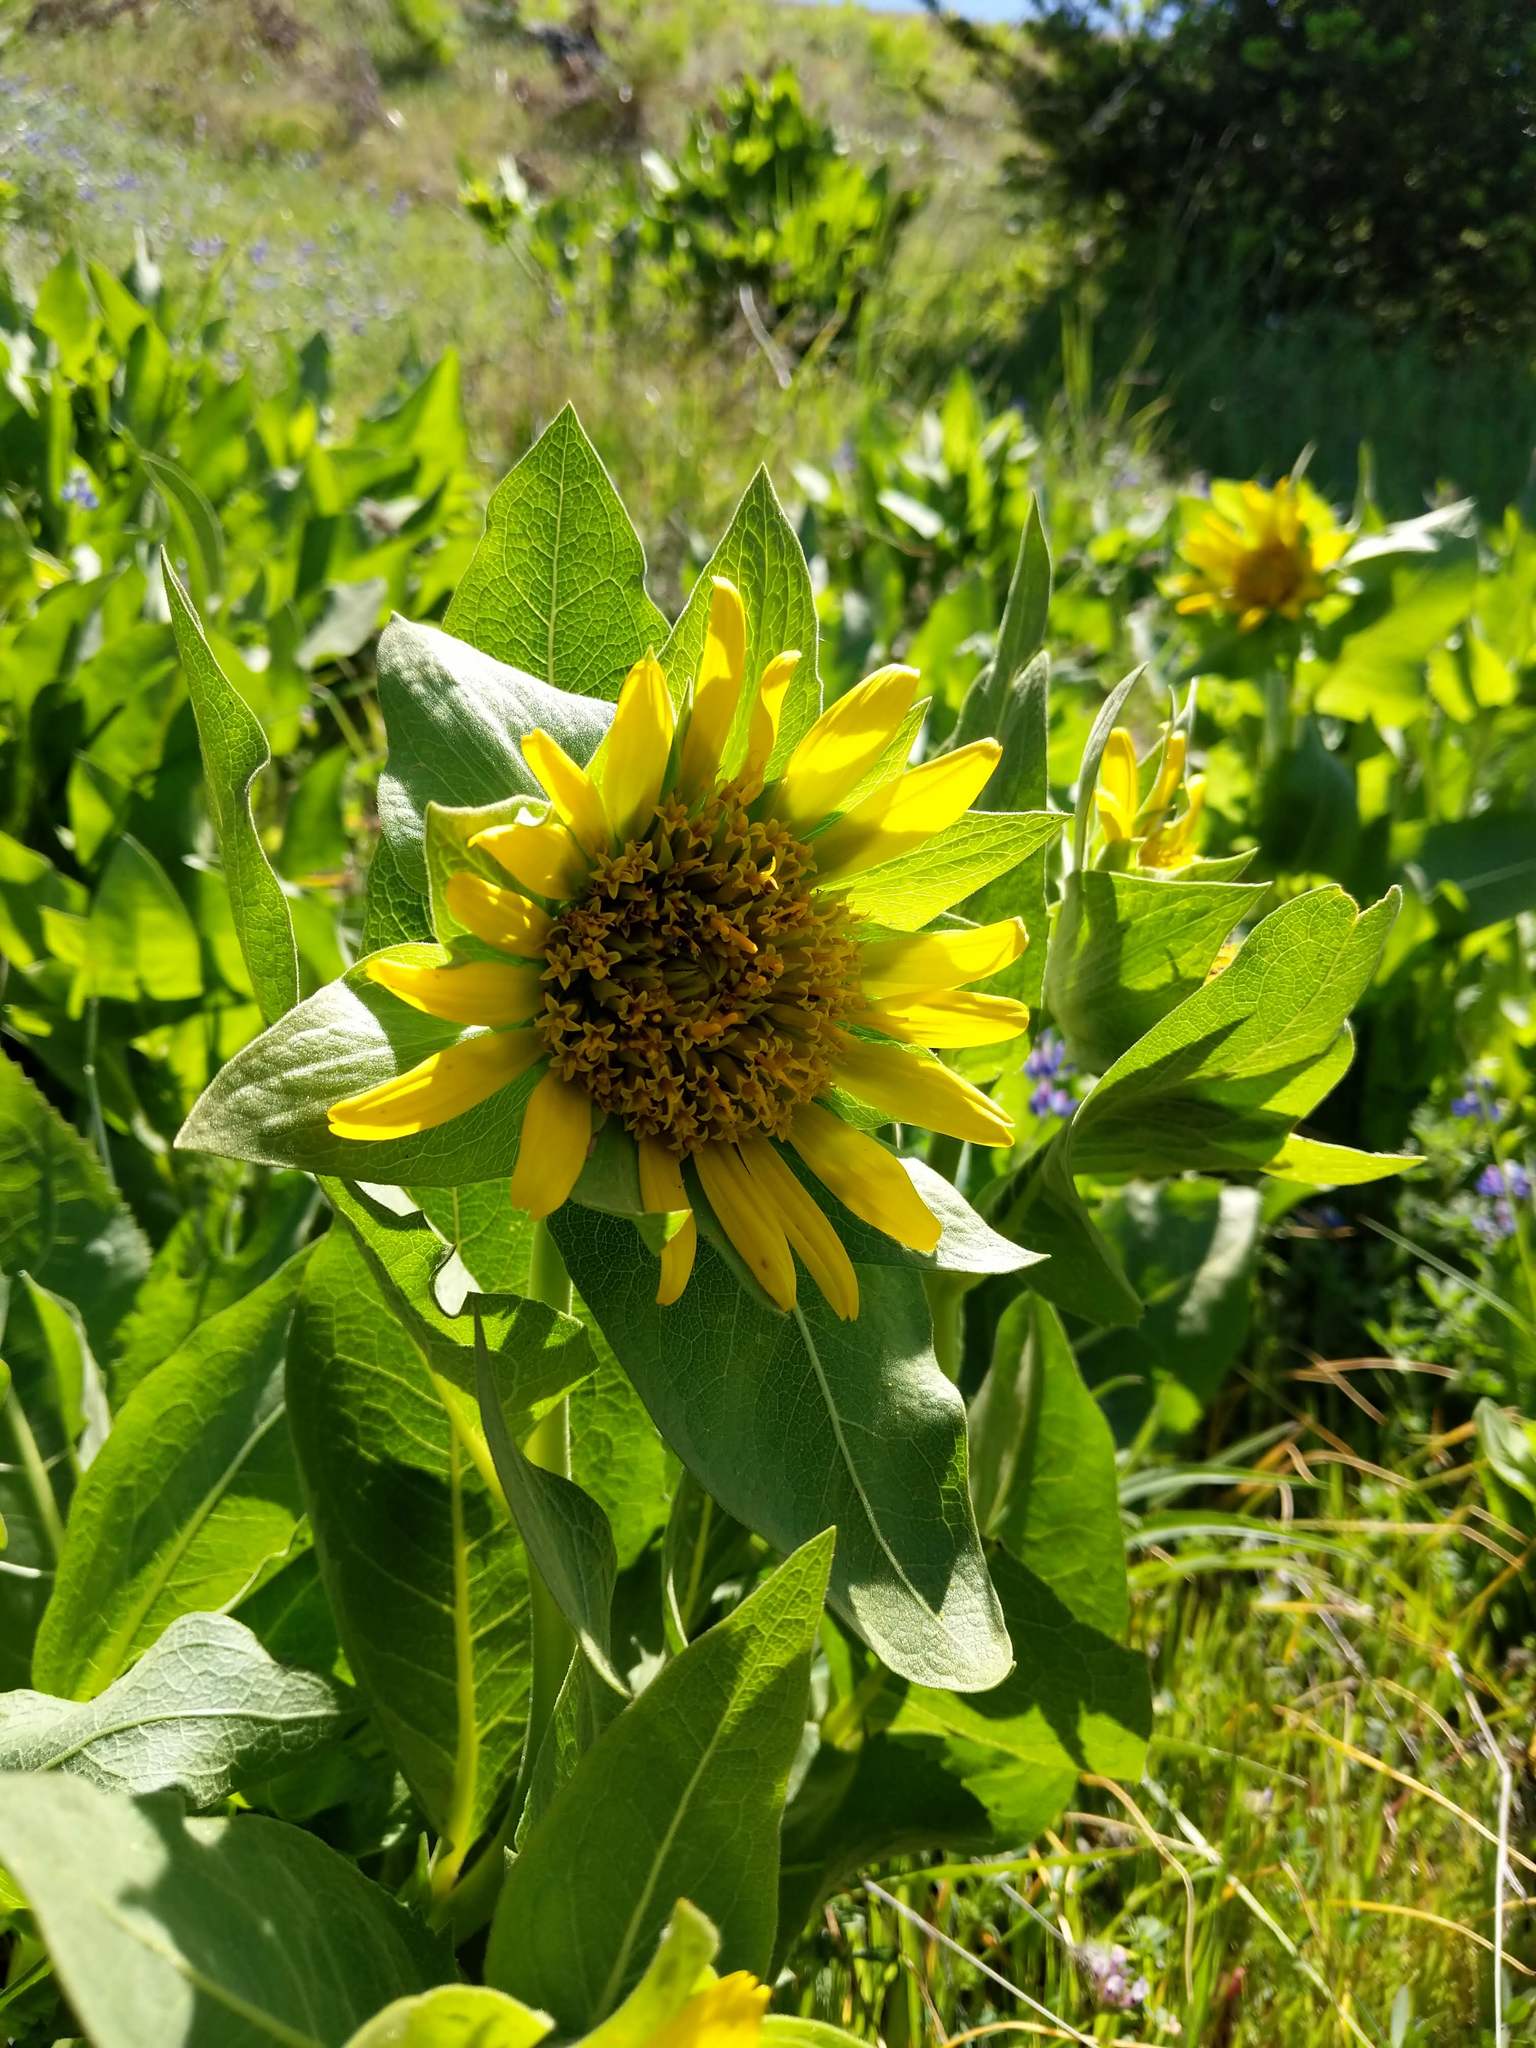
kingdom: Plantae
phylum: Tracheophyta
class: Magnoliopsida
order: Asterales
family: Asteraceae
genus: Wyethia
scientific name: Wyethia glabra
